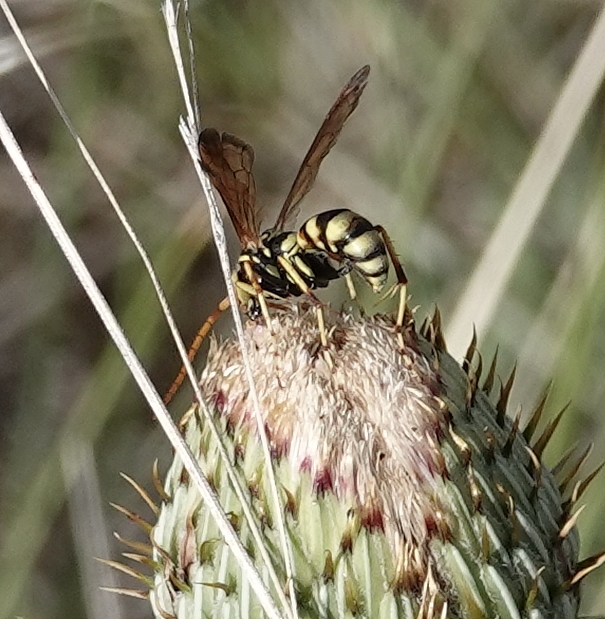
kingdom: Animalia
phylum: Arthropoda
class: Insecta
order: Hymenoptera
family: Pompilidae
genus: Poecilopompilus
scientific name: Poecilopompilus interruptus
